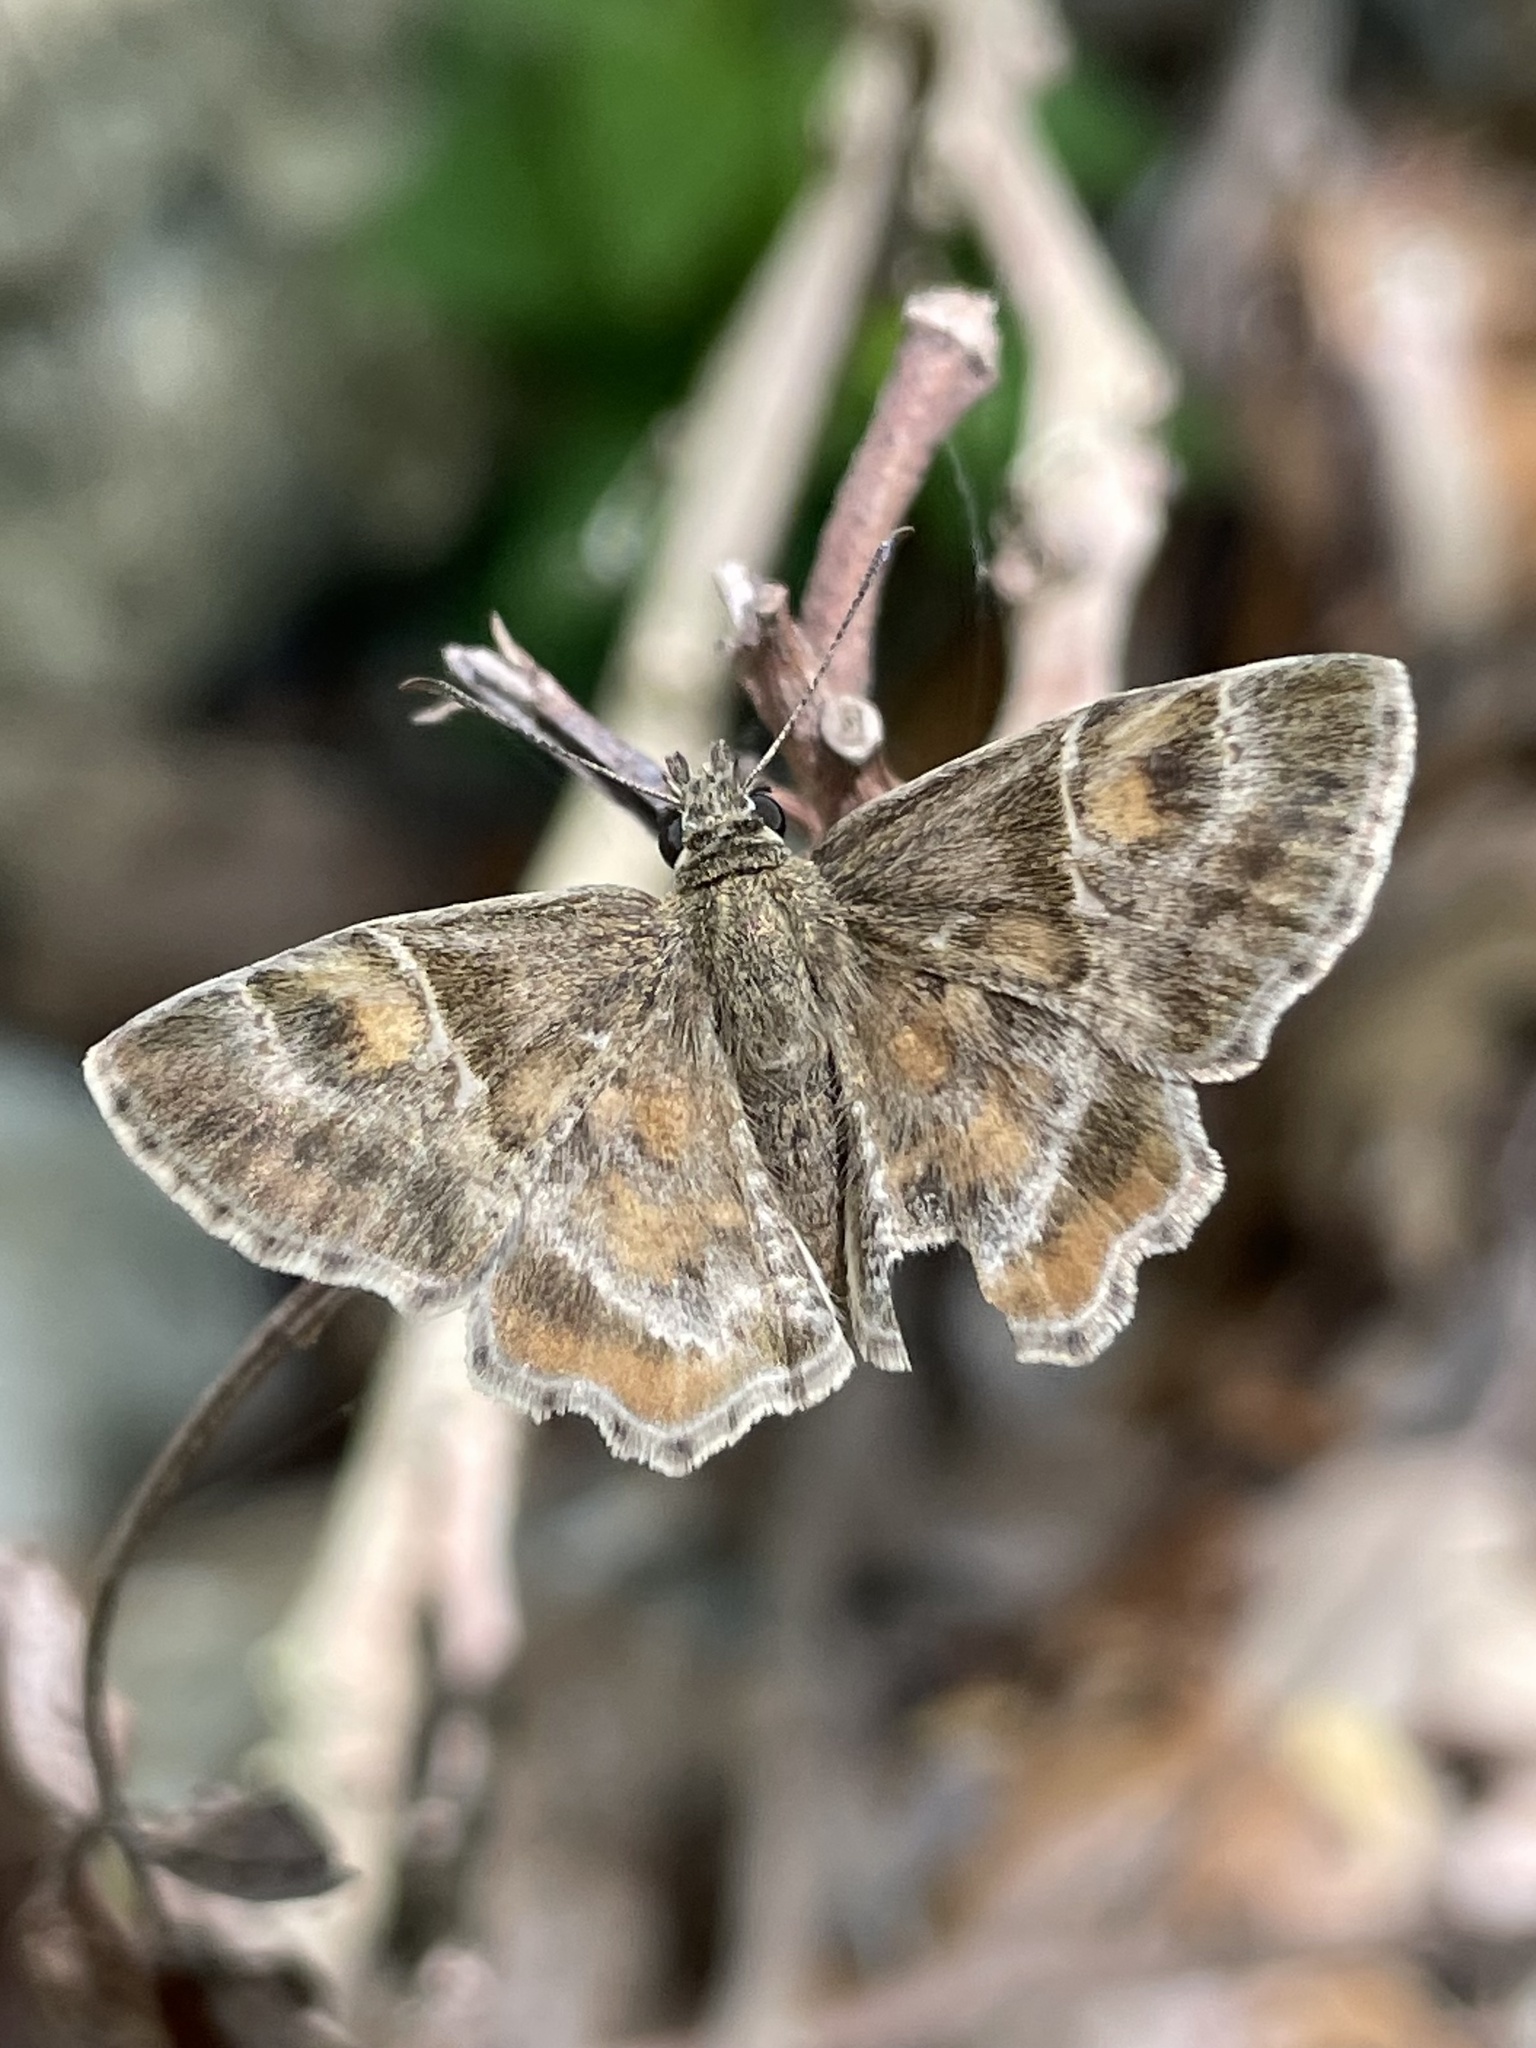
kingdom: Animalia
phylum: Arthropoda
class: Insecta
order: Lepidoptera
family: Hesperiidae
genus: Systasea
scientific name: Systasea pulverulenta
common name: Texas powdered skipper
